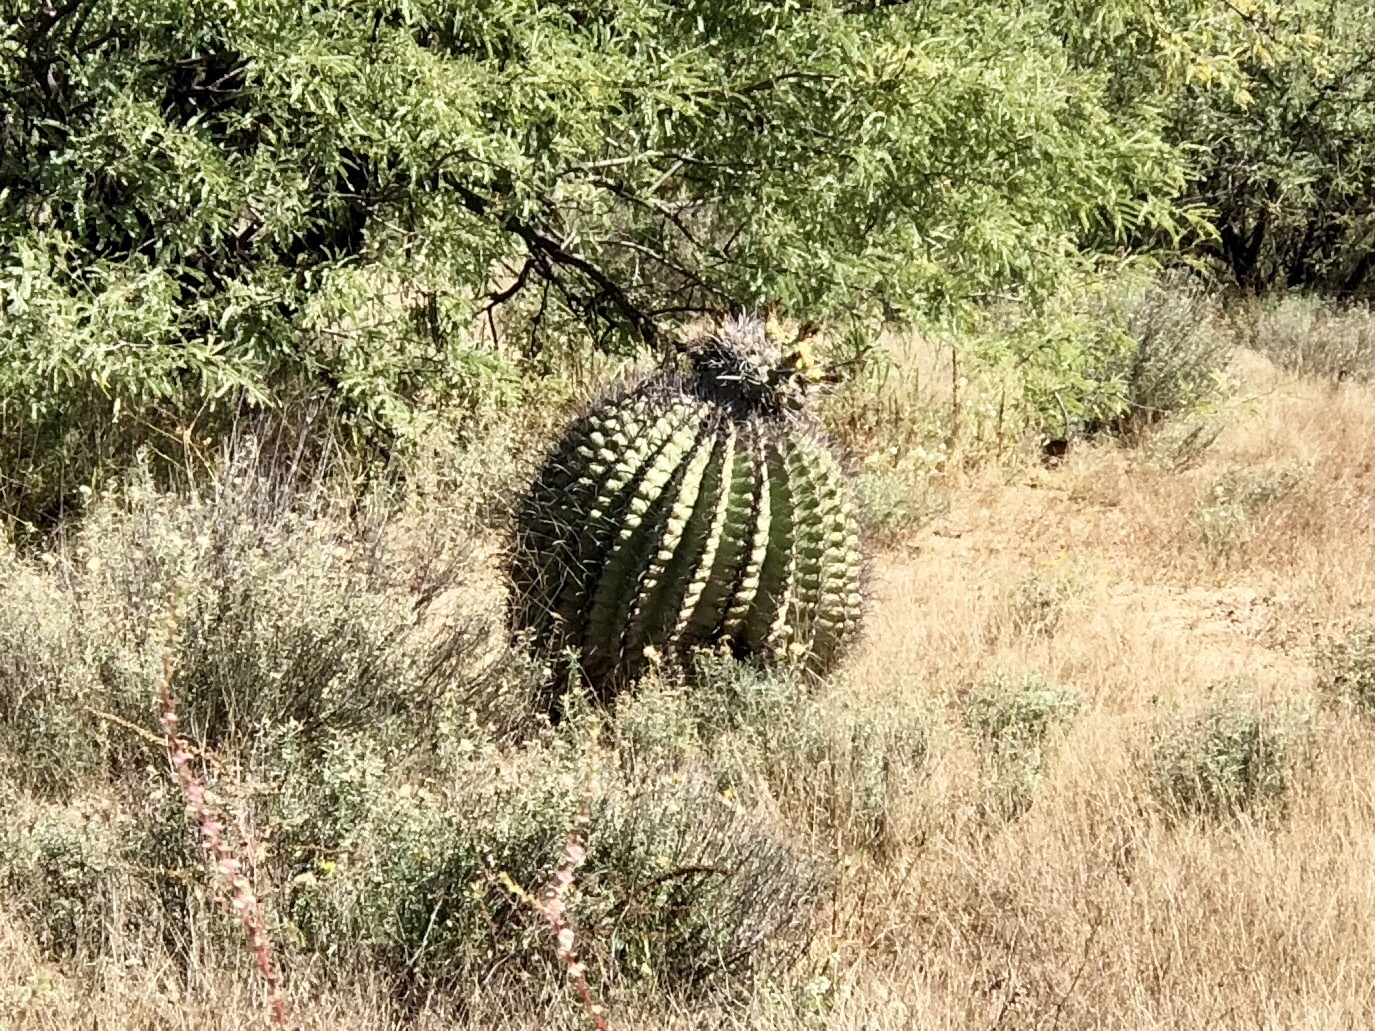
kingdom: Plantae
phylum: Tracheophyta
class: Magnoliopsida
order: Caryophyllales
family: Cactaceae
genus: Ferocactus
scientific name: Ferocactus wislizeni
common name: Candy barrel cactus
